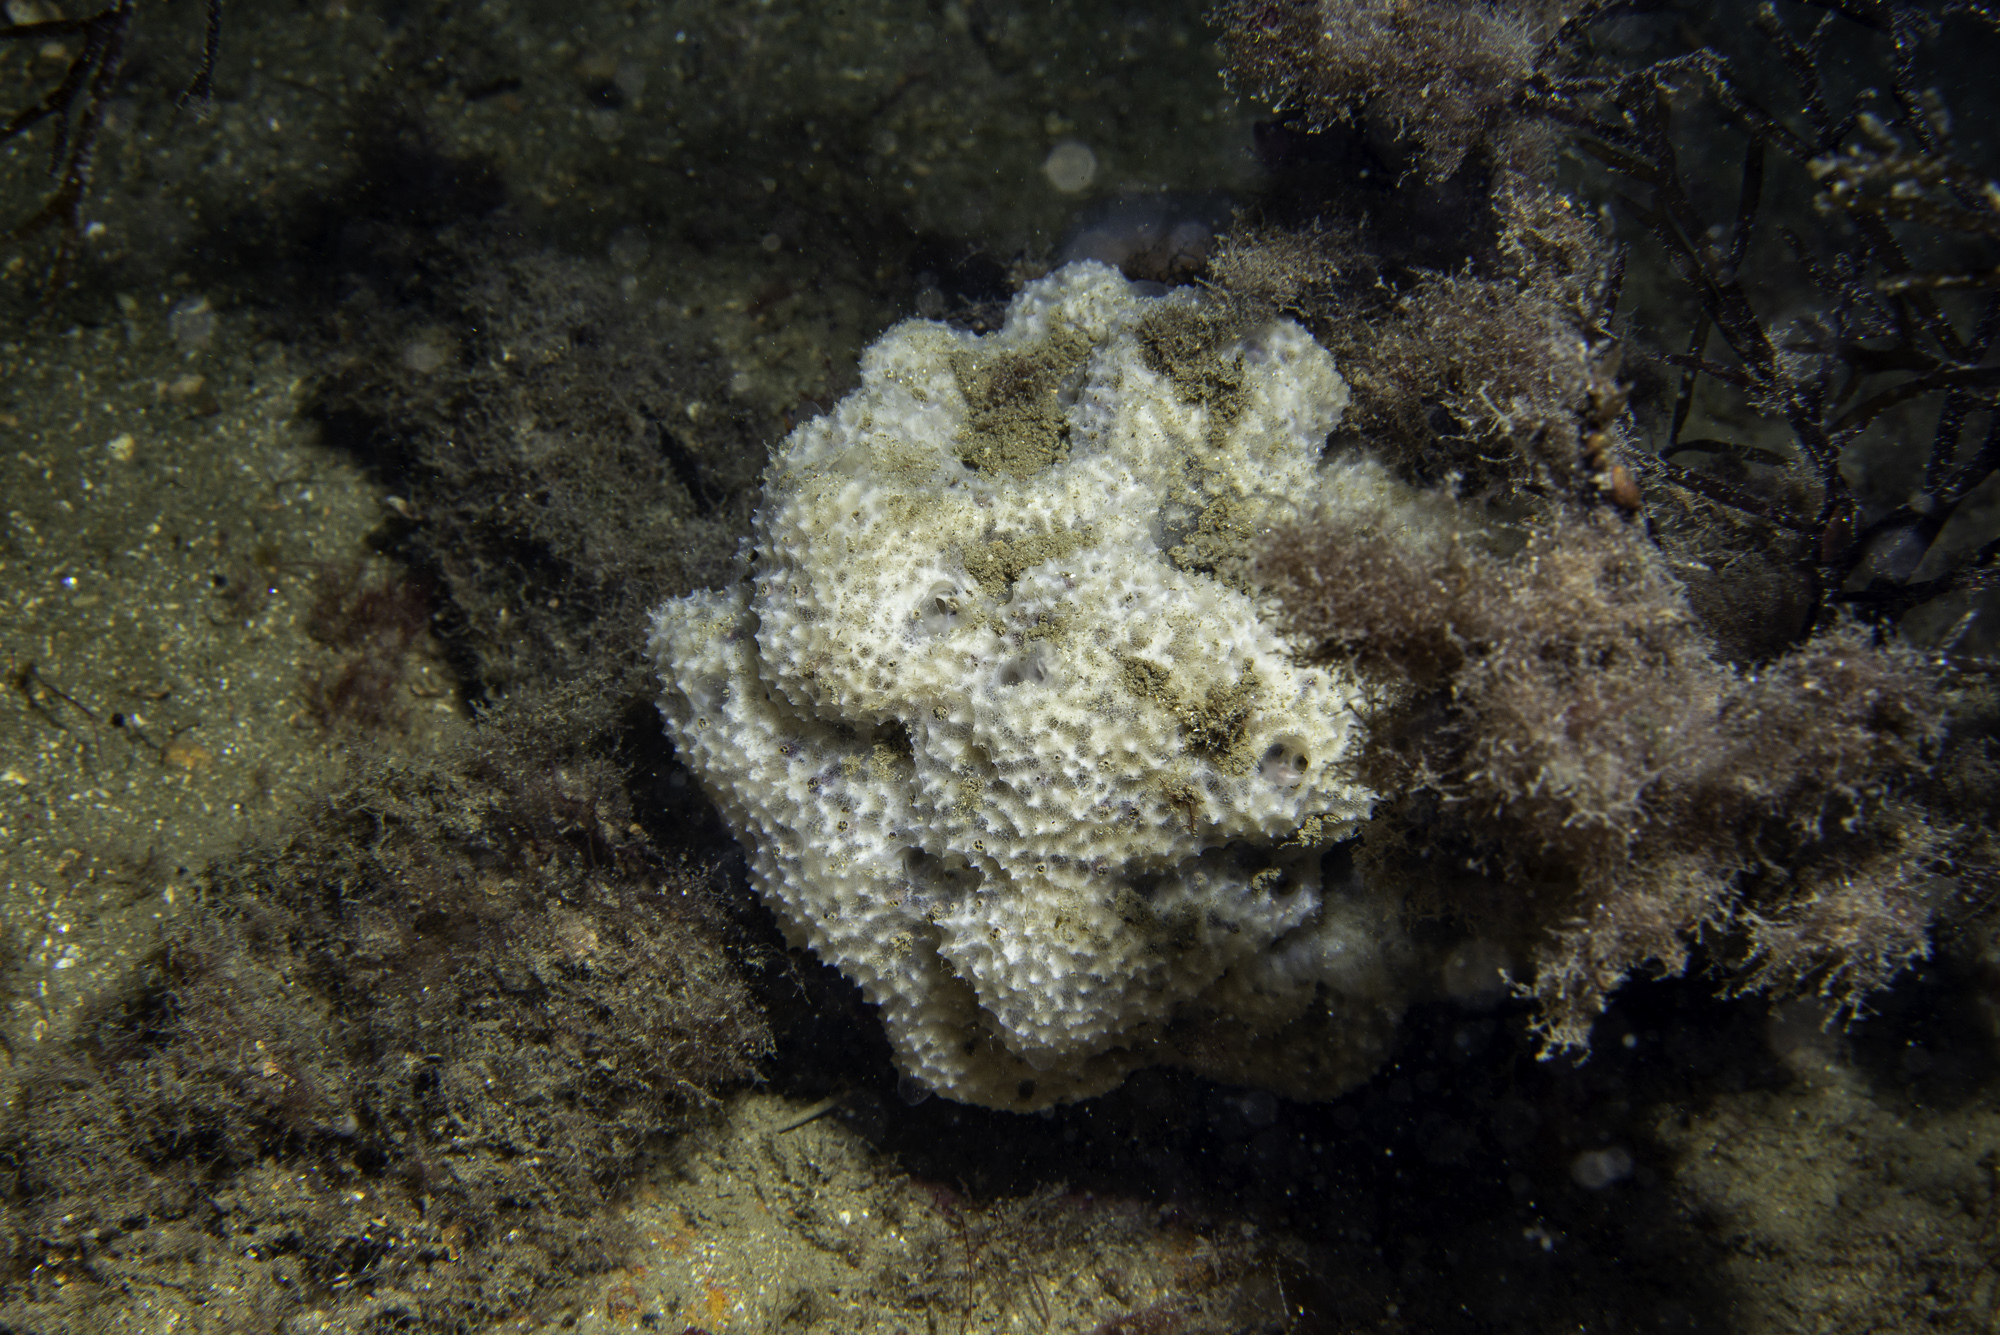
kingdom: Animalia
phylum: Porifera
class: Demospongiae
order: Dictyoceratida
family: Dysideidae
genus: Dysidea
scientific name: Dysidea fragilis
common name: Goosebump sponge
